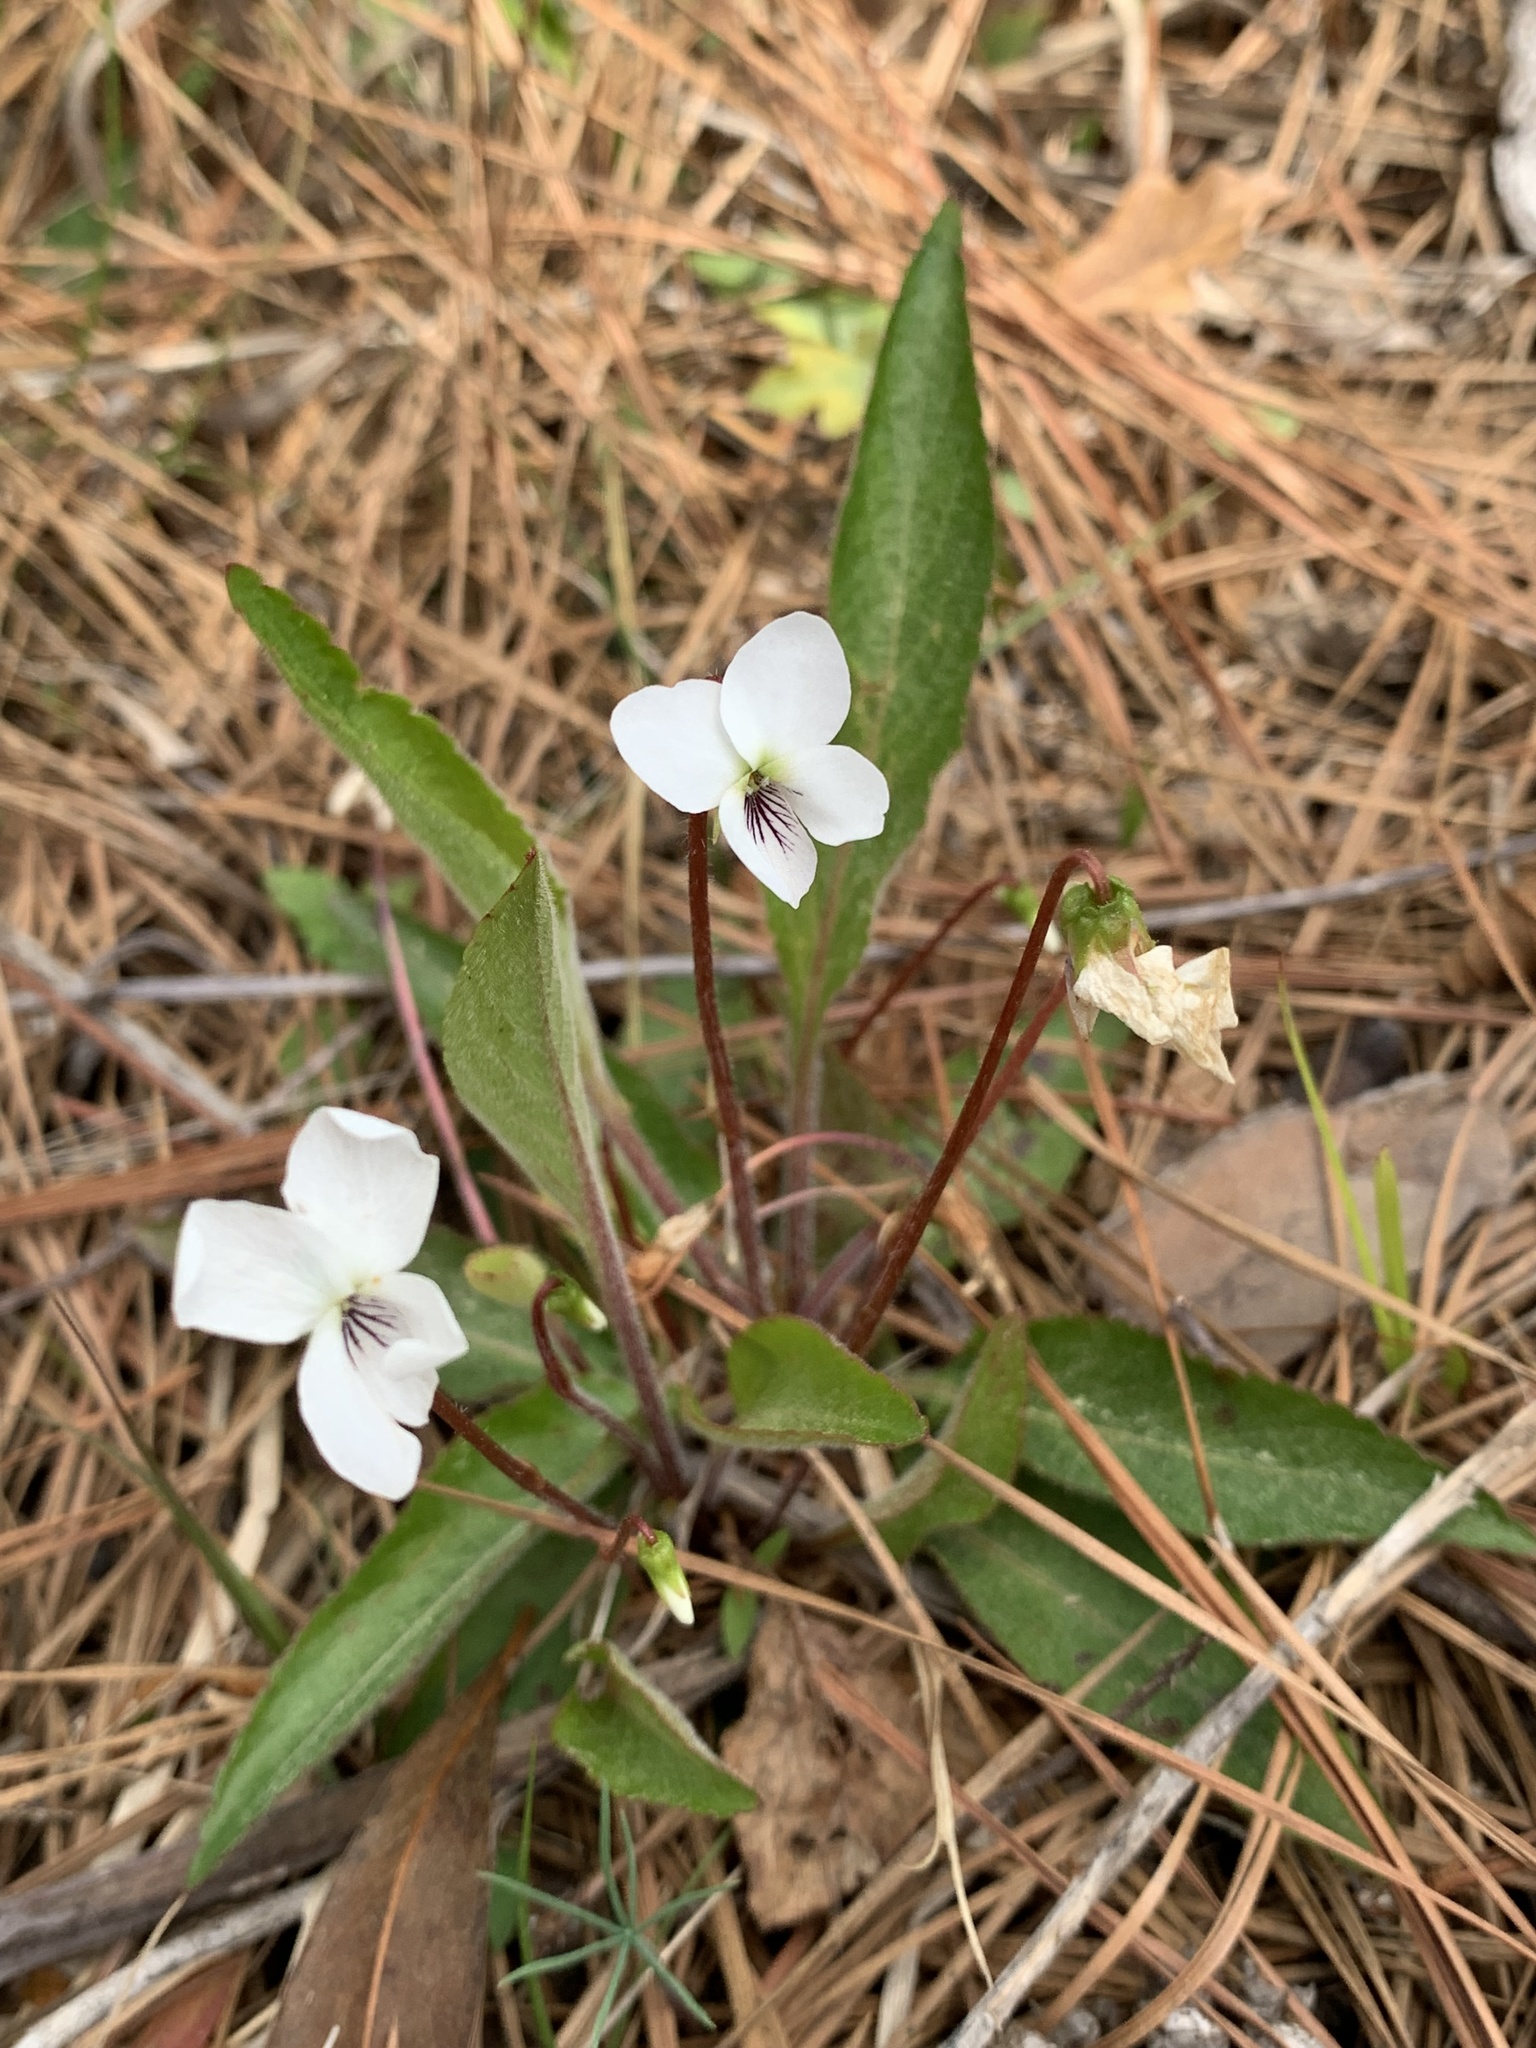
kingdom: Plantae
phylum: Tracheophyta
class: Magnoliopsida
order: Malpighiales
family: Violaceae
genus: Viola
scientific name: Viola lanceolata
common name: Bog white violet
